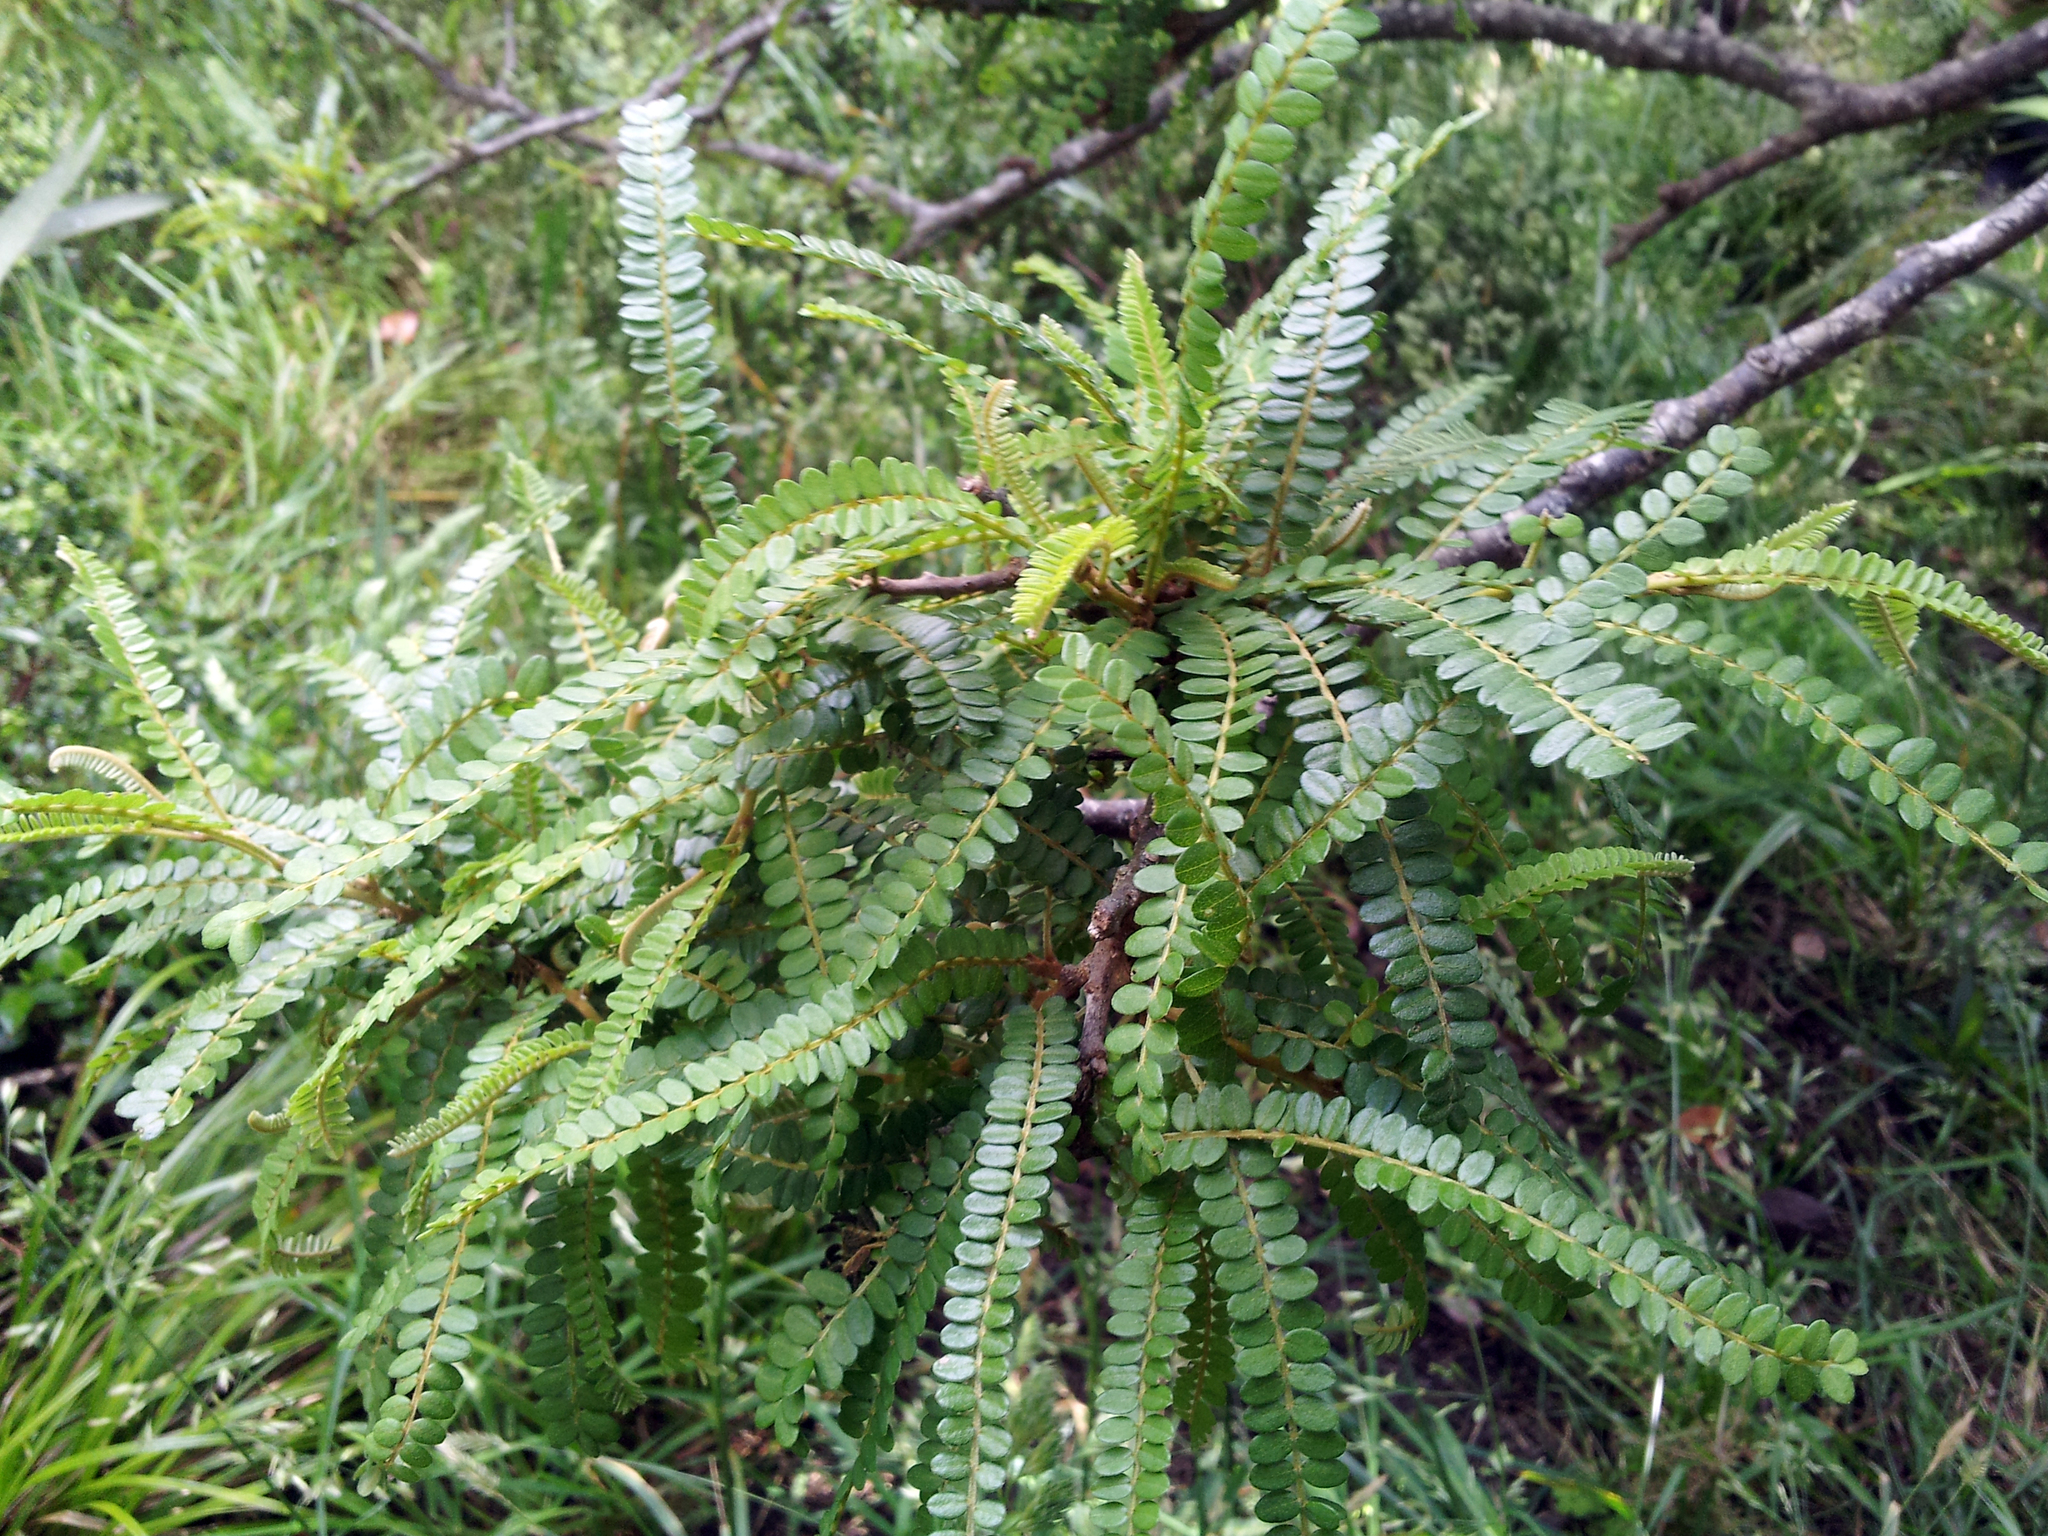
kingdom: Plantae
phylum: Tracheophyta
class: Magnoliopsida
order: Fabales
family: Fabaceae
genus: Sophora
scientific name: Sophora fulvida
